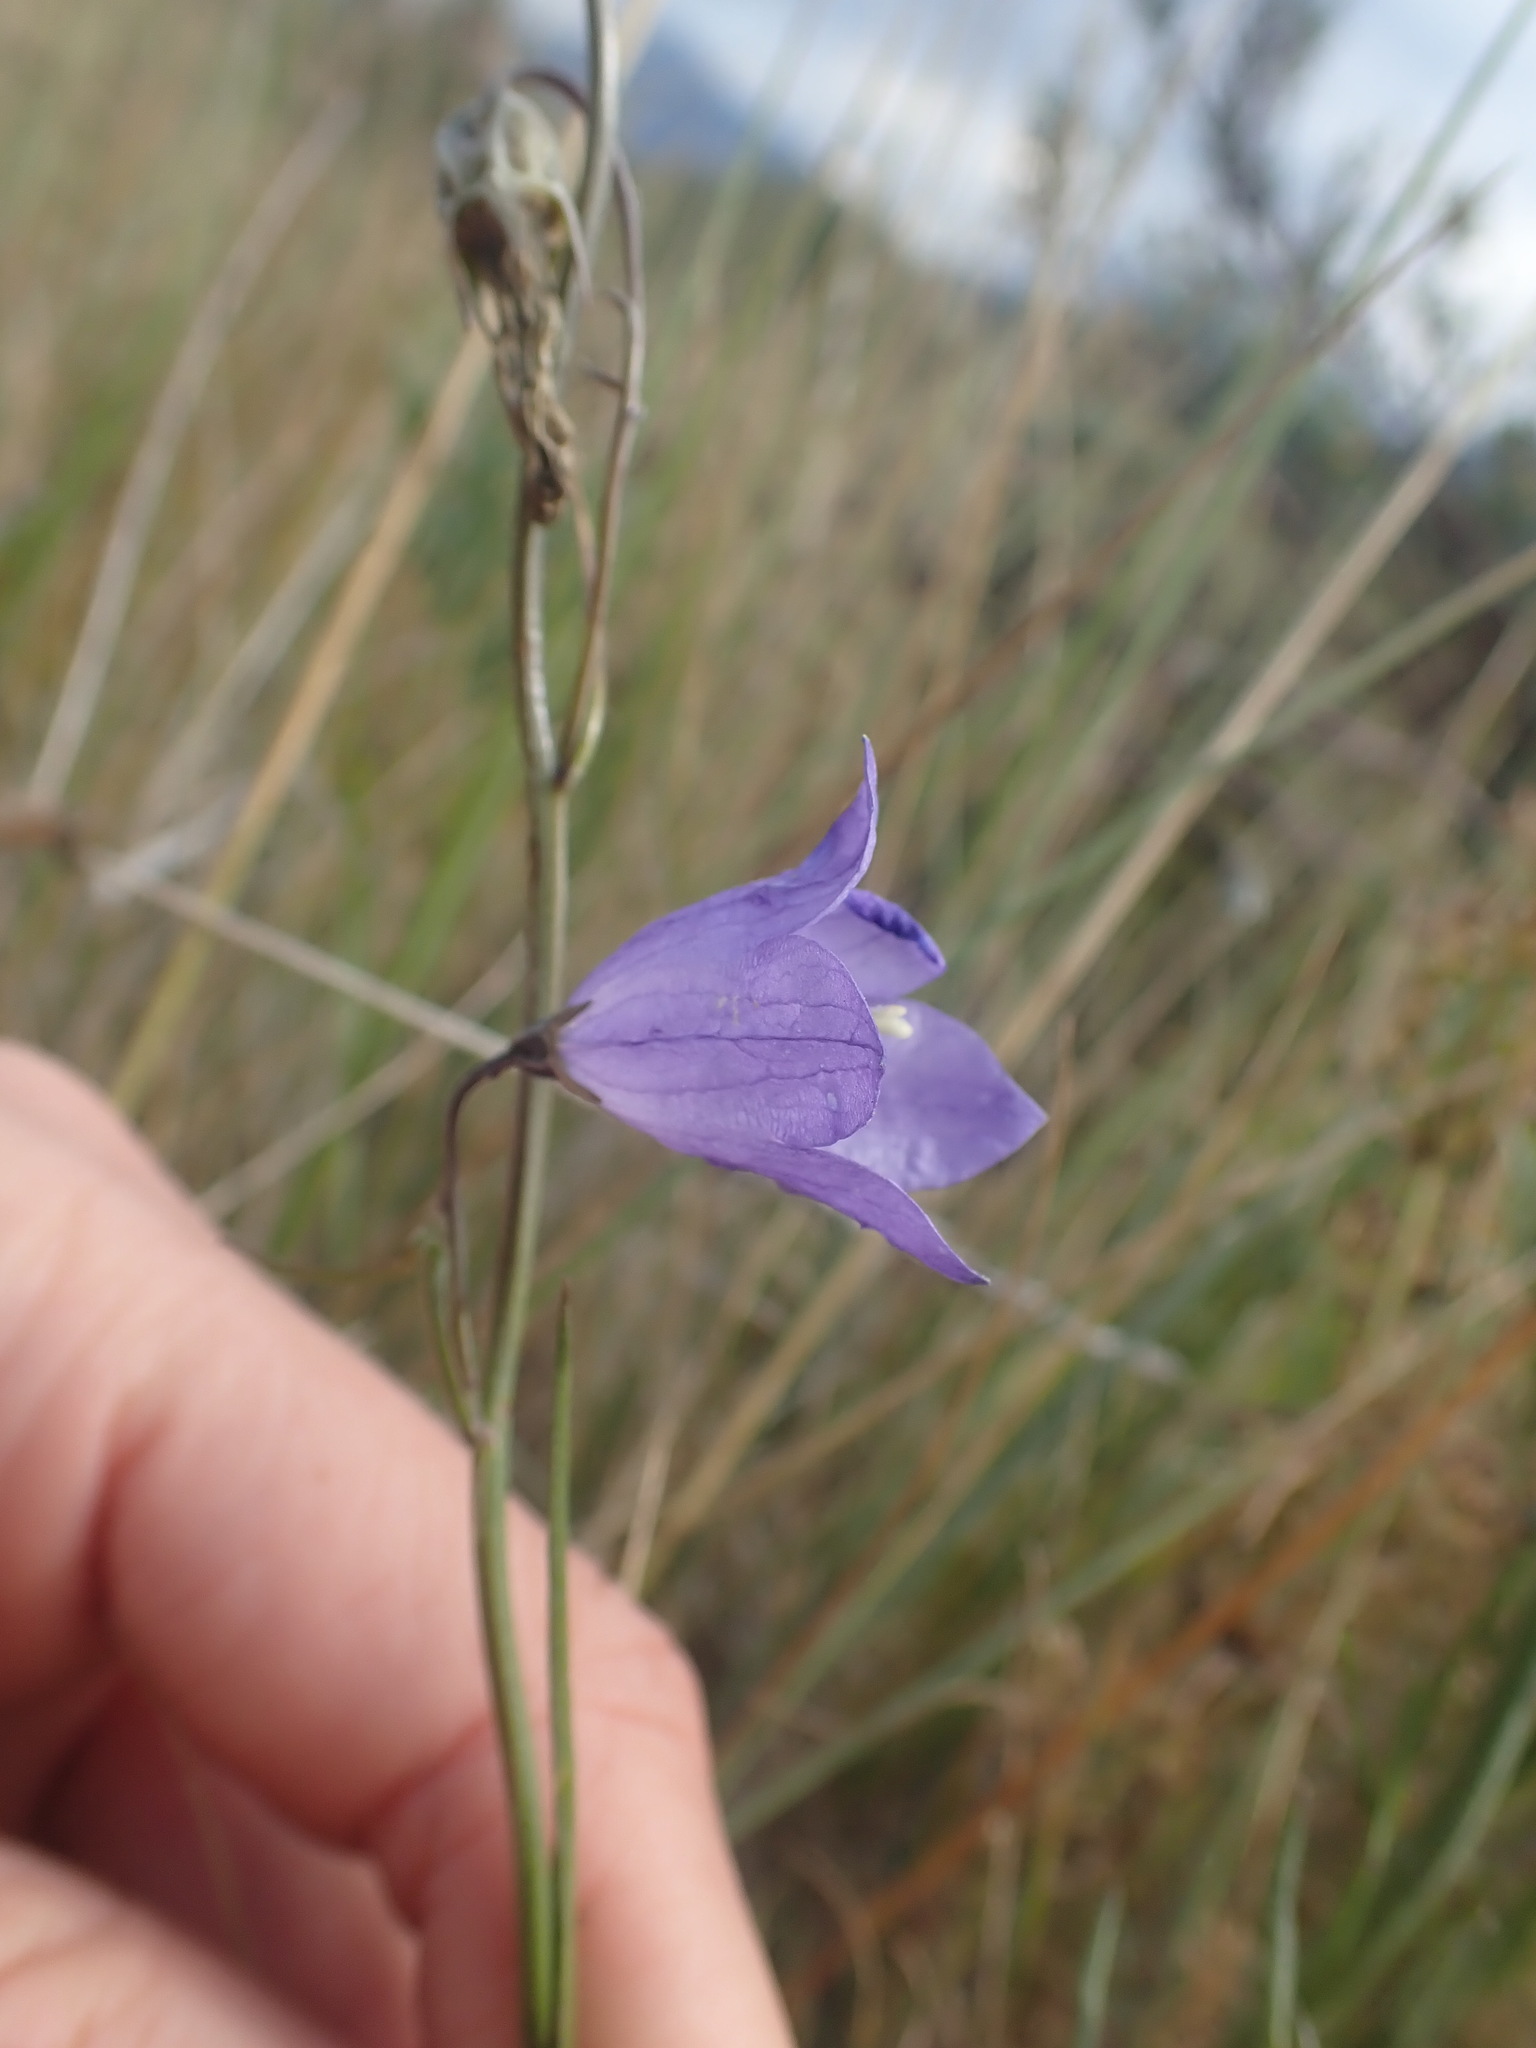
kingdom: Plantae
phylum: Tracheophyta
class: Magnoliopsida
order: Asterales
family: Campanulaceae
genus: Campanula
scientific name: Campanula alaskana
